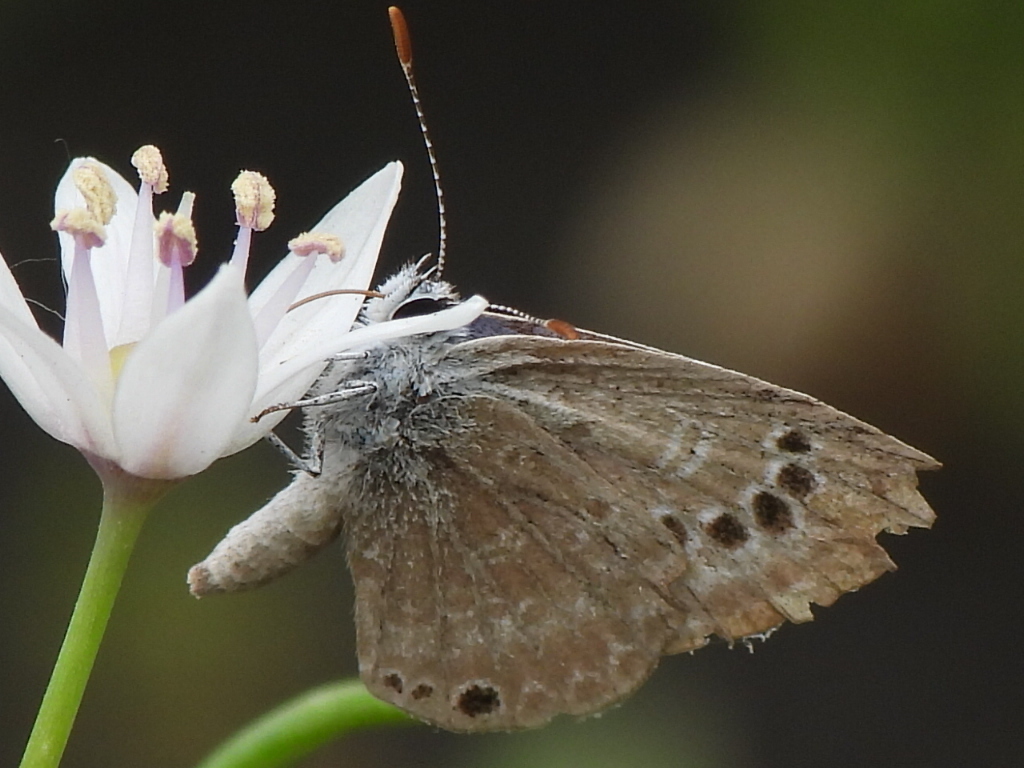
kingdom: Animalia
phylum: Arthropoda
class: Insecta
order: Lepidoptera
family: Lycaenidae
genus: Echinargus
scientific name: Echinargus isola
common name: Reakirt's blue
